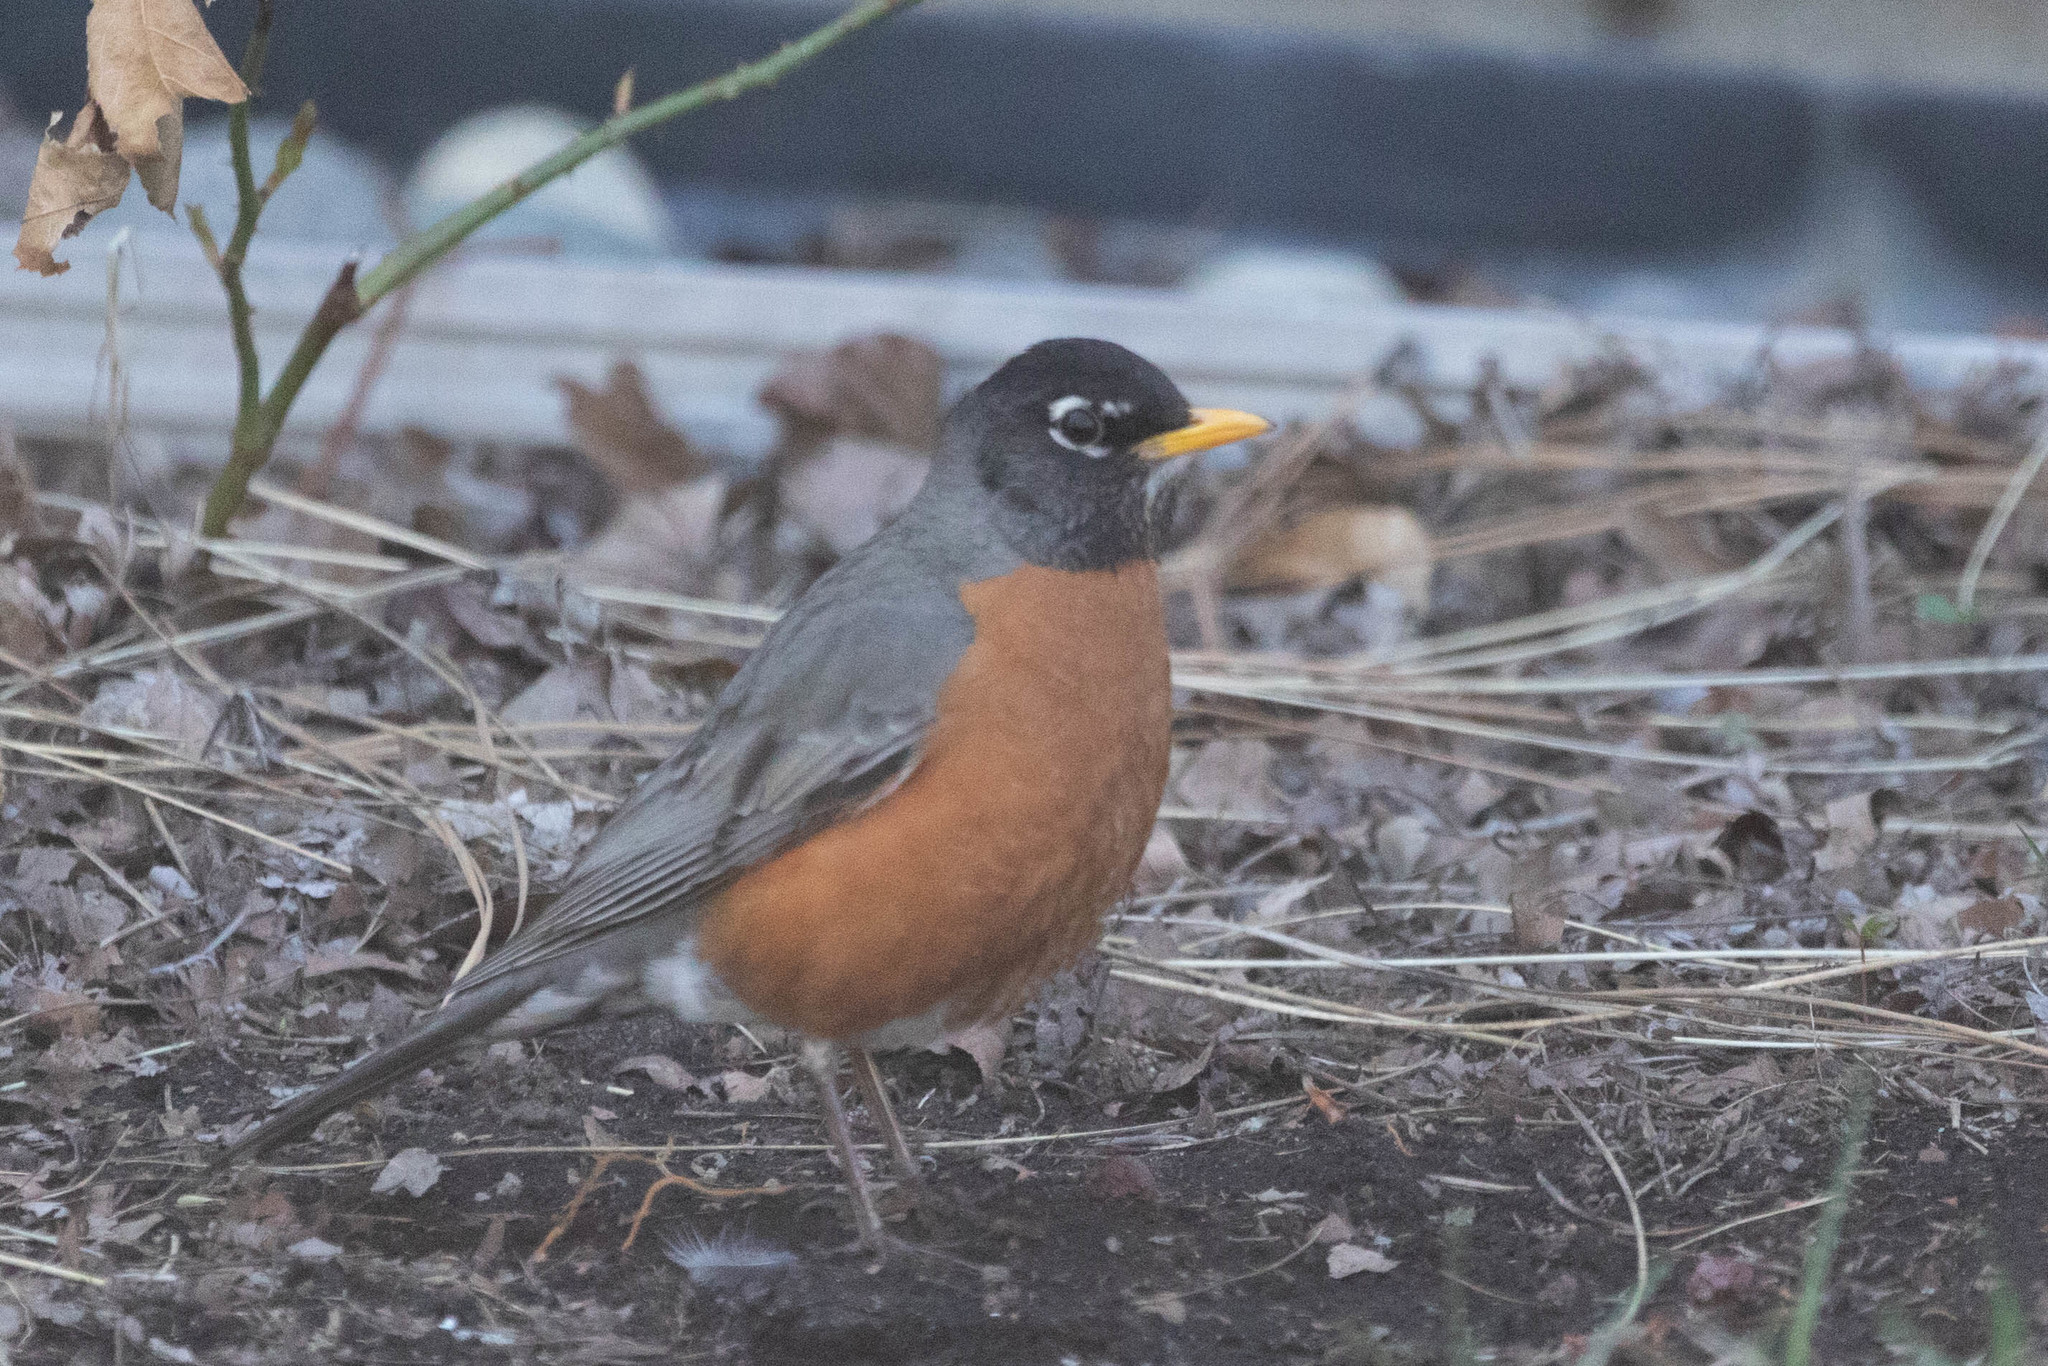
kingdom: Animalia
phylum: Chordata
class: Aves
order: Passeriformes
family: Turdidae
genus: Turdus
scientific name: Turdus migratorius
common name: American robin
